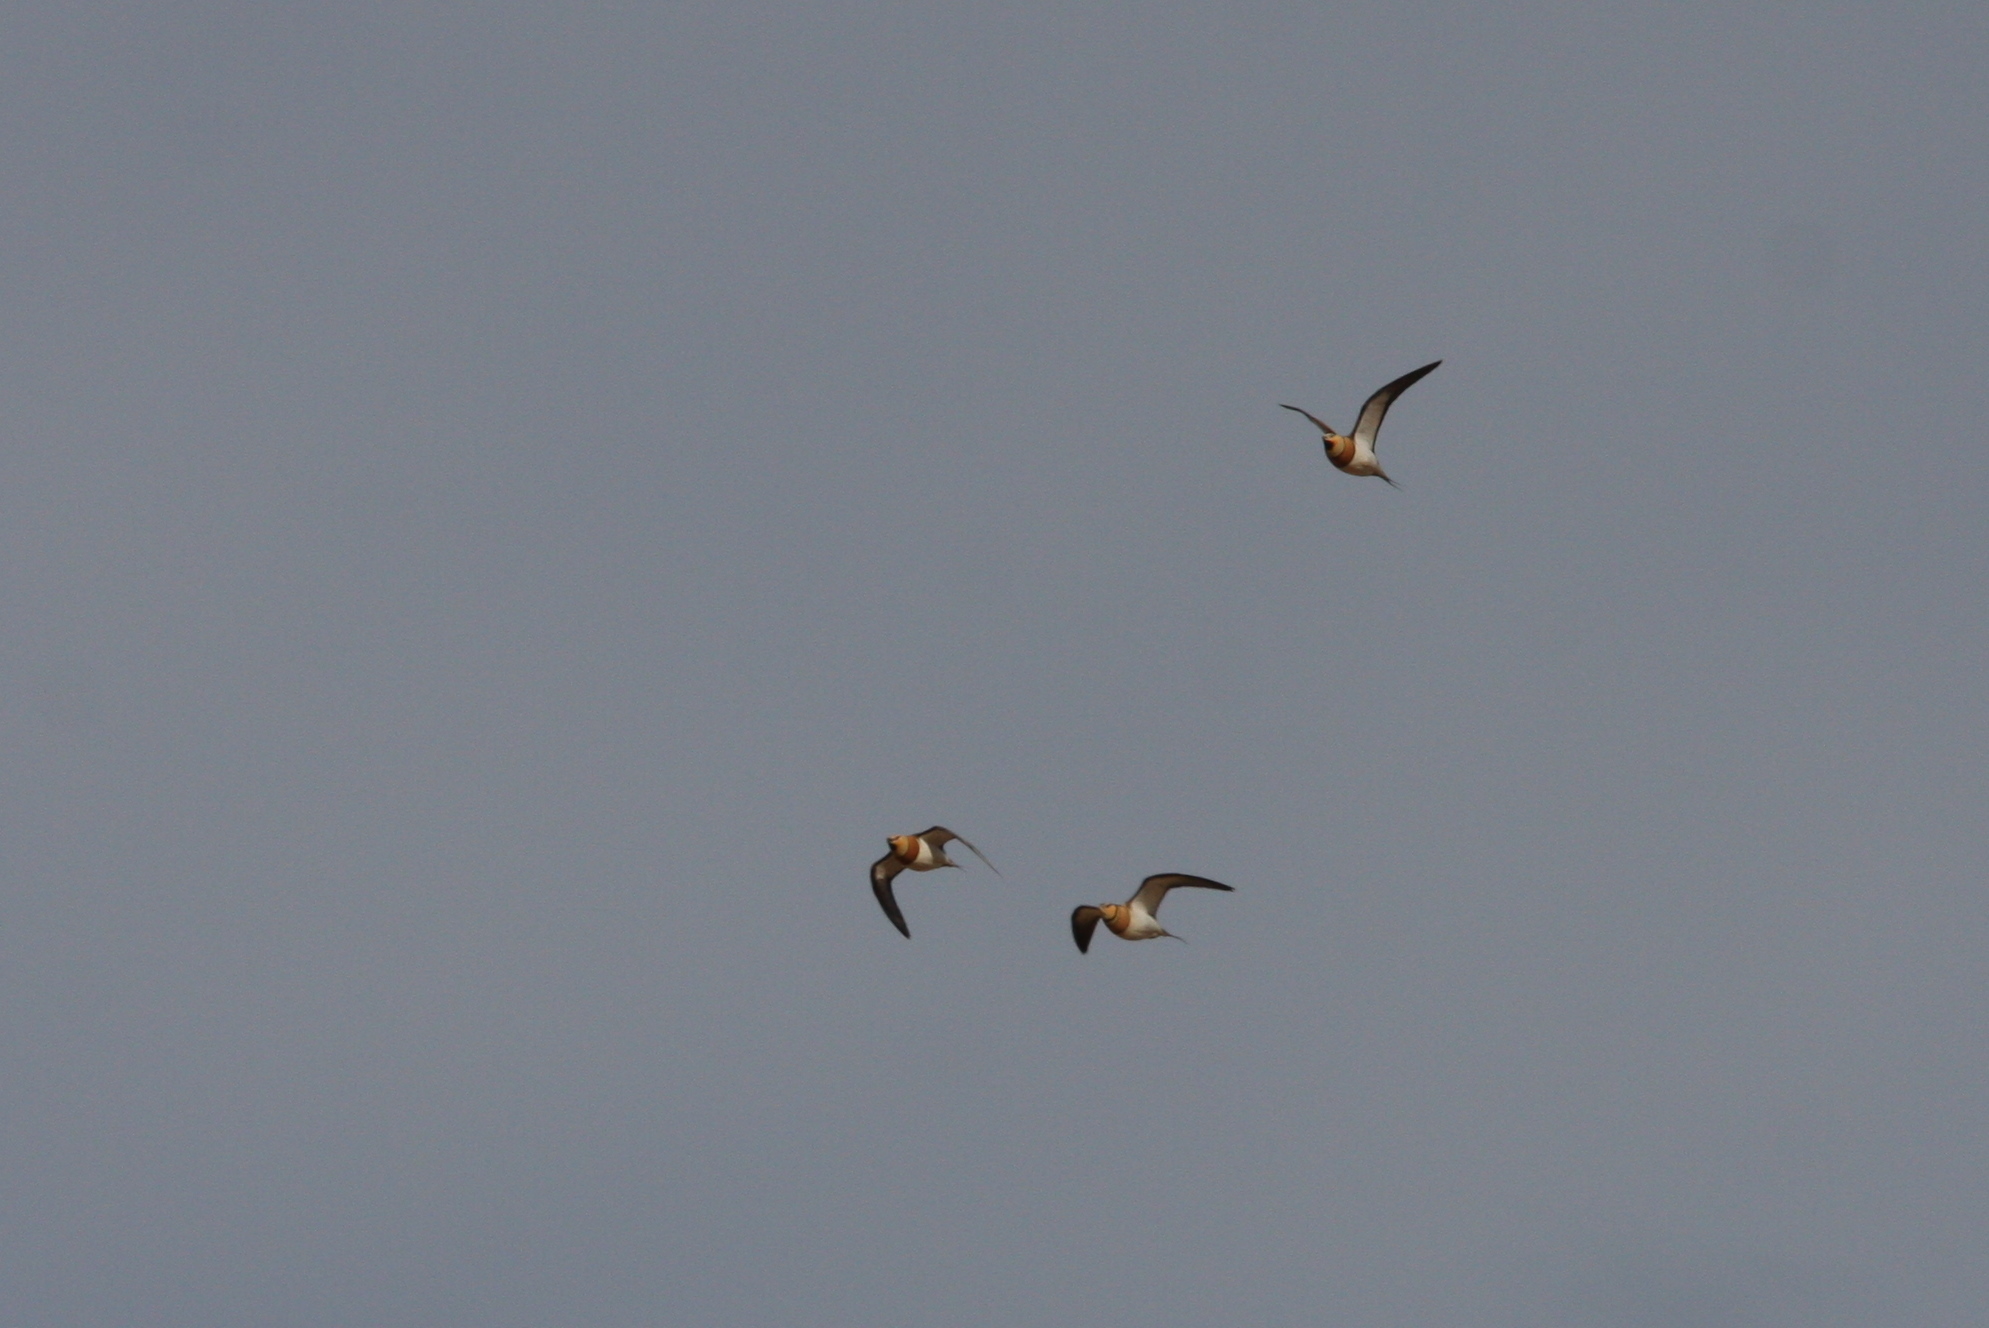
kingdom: Animalia
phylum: Chordata
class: Aves
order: Pteroclidiformes
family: Pteroclididae
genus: Pterocles
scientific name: Pterocles alchata
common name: Pin-tailed sandgrouse
